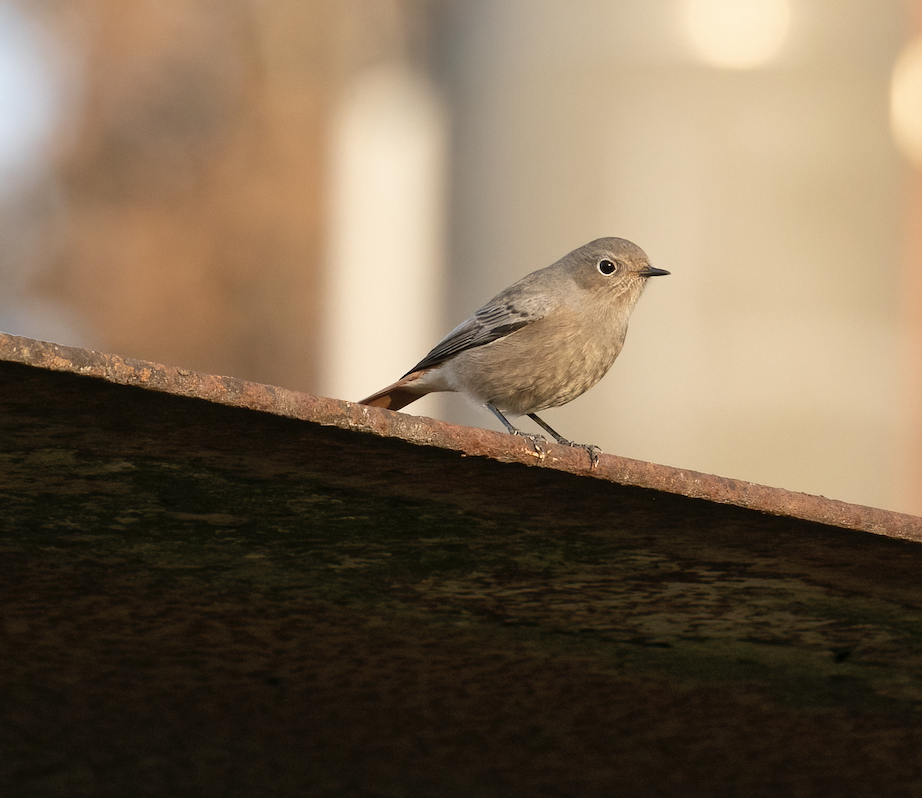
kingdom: Animalia
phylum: Chordata
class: Aves
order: Passeriformes
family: Muscicapidae
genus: Phoenicurus
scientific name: Phoenicurus ochruros
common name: Black redstart
